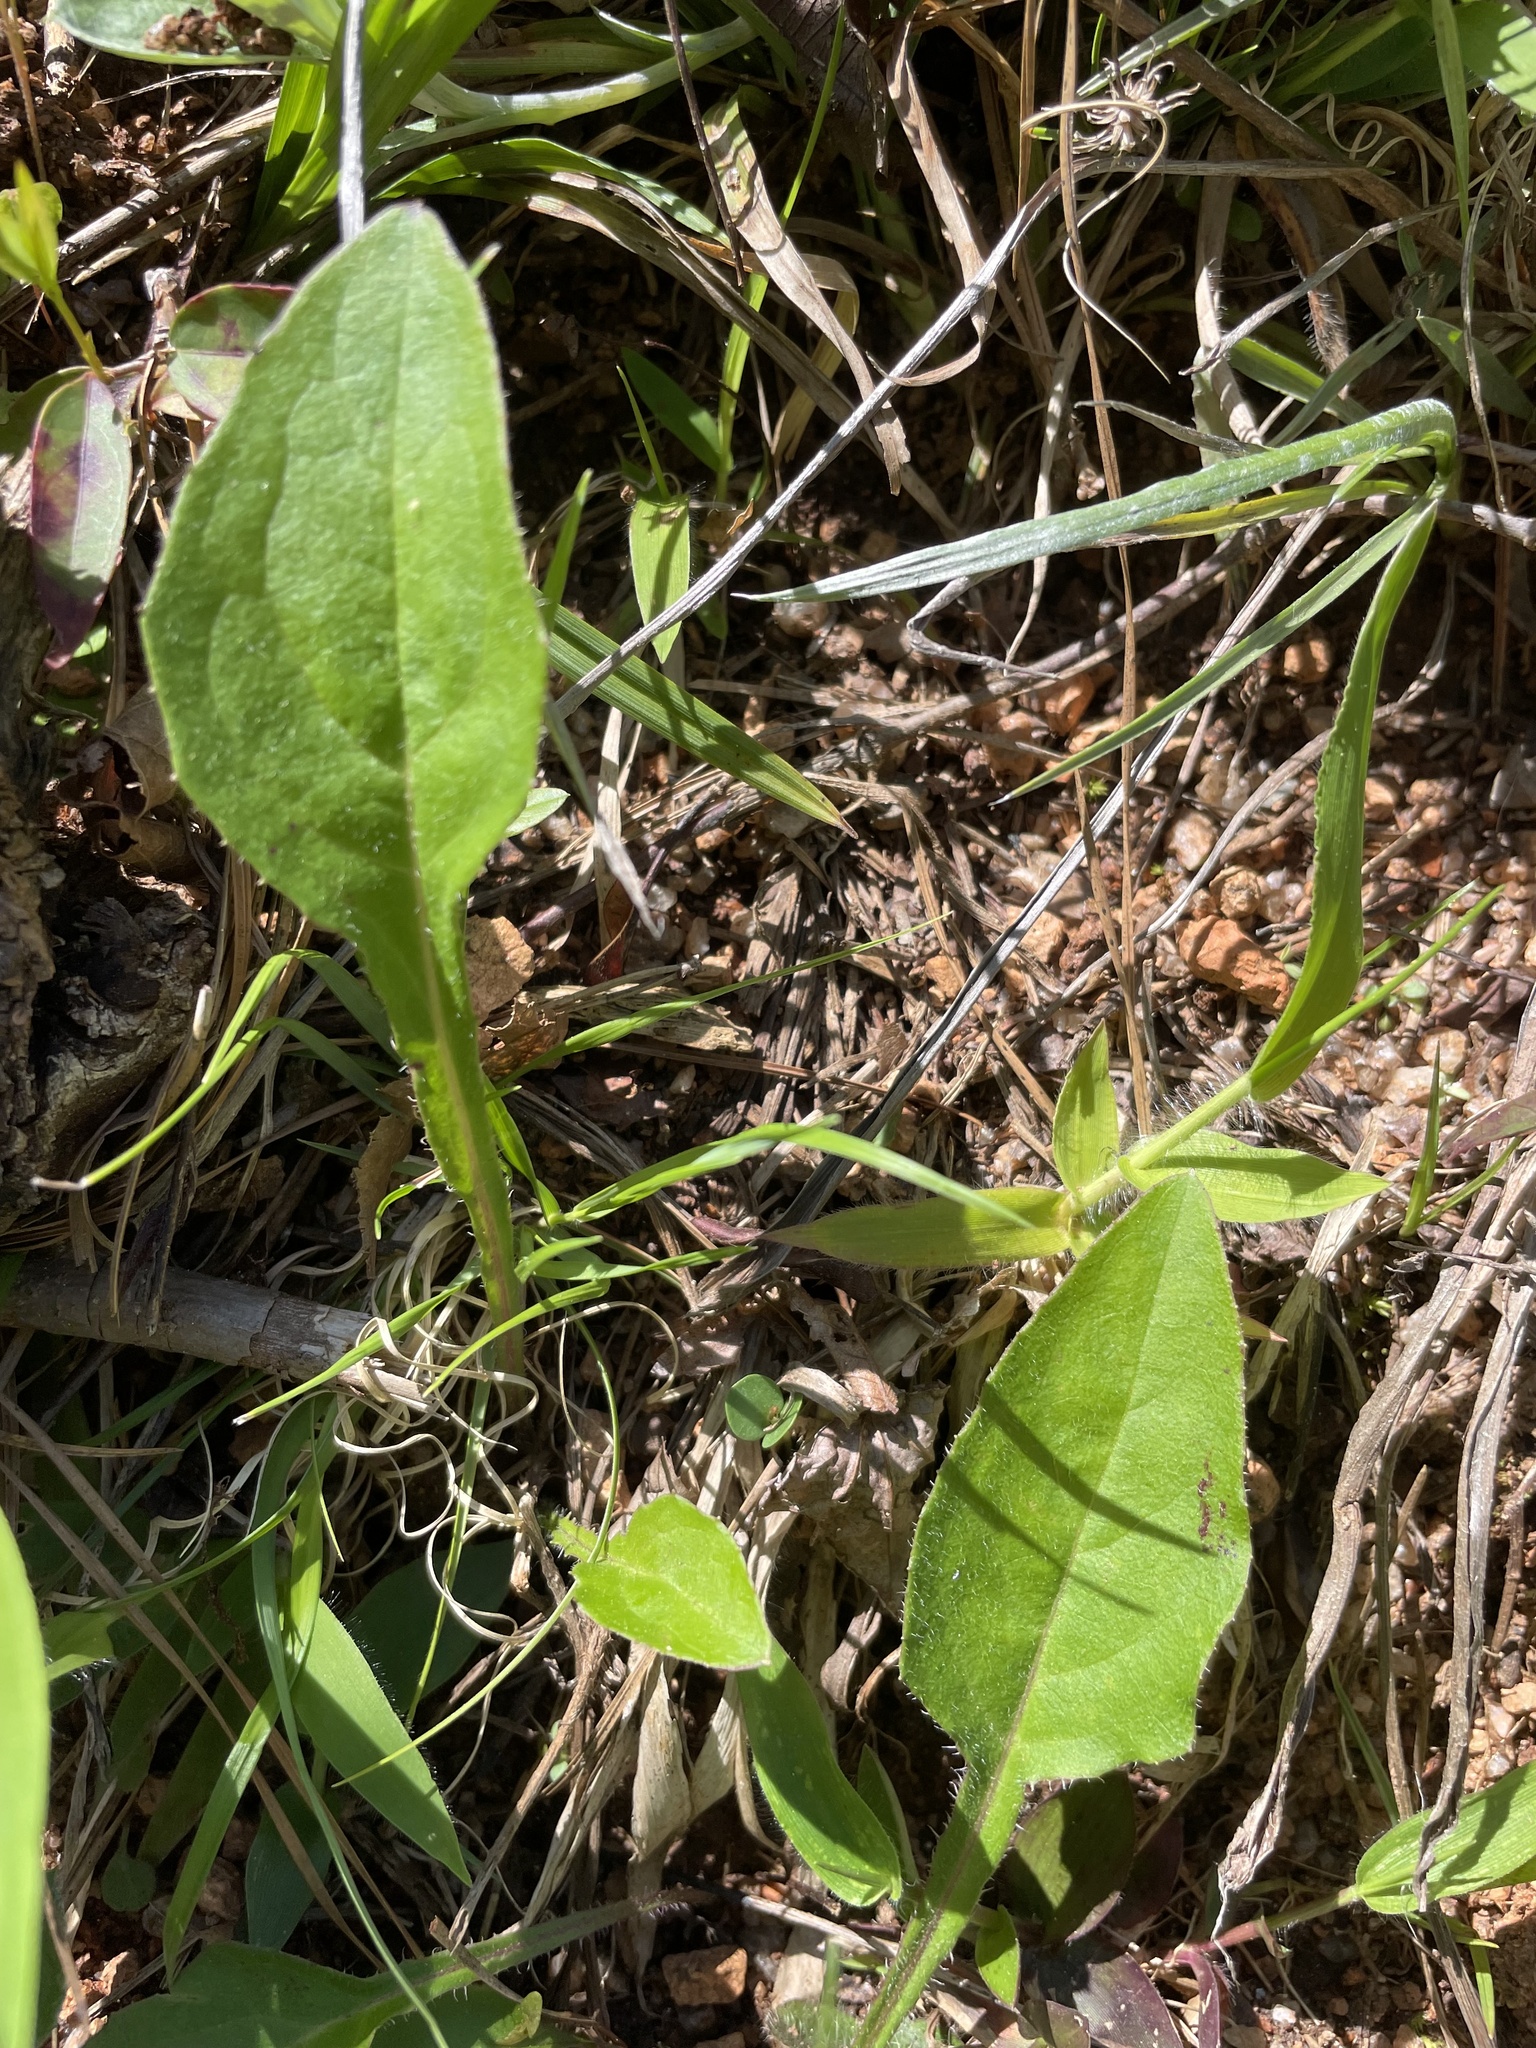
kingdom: Plantae
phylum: Tracheophyta
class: Magnoliopsida
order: Asterales
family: Asteraceae
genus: Helianthus
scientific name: Helianthus atrorubens
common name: Dark-eyed sunflower
